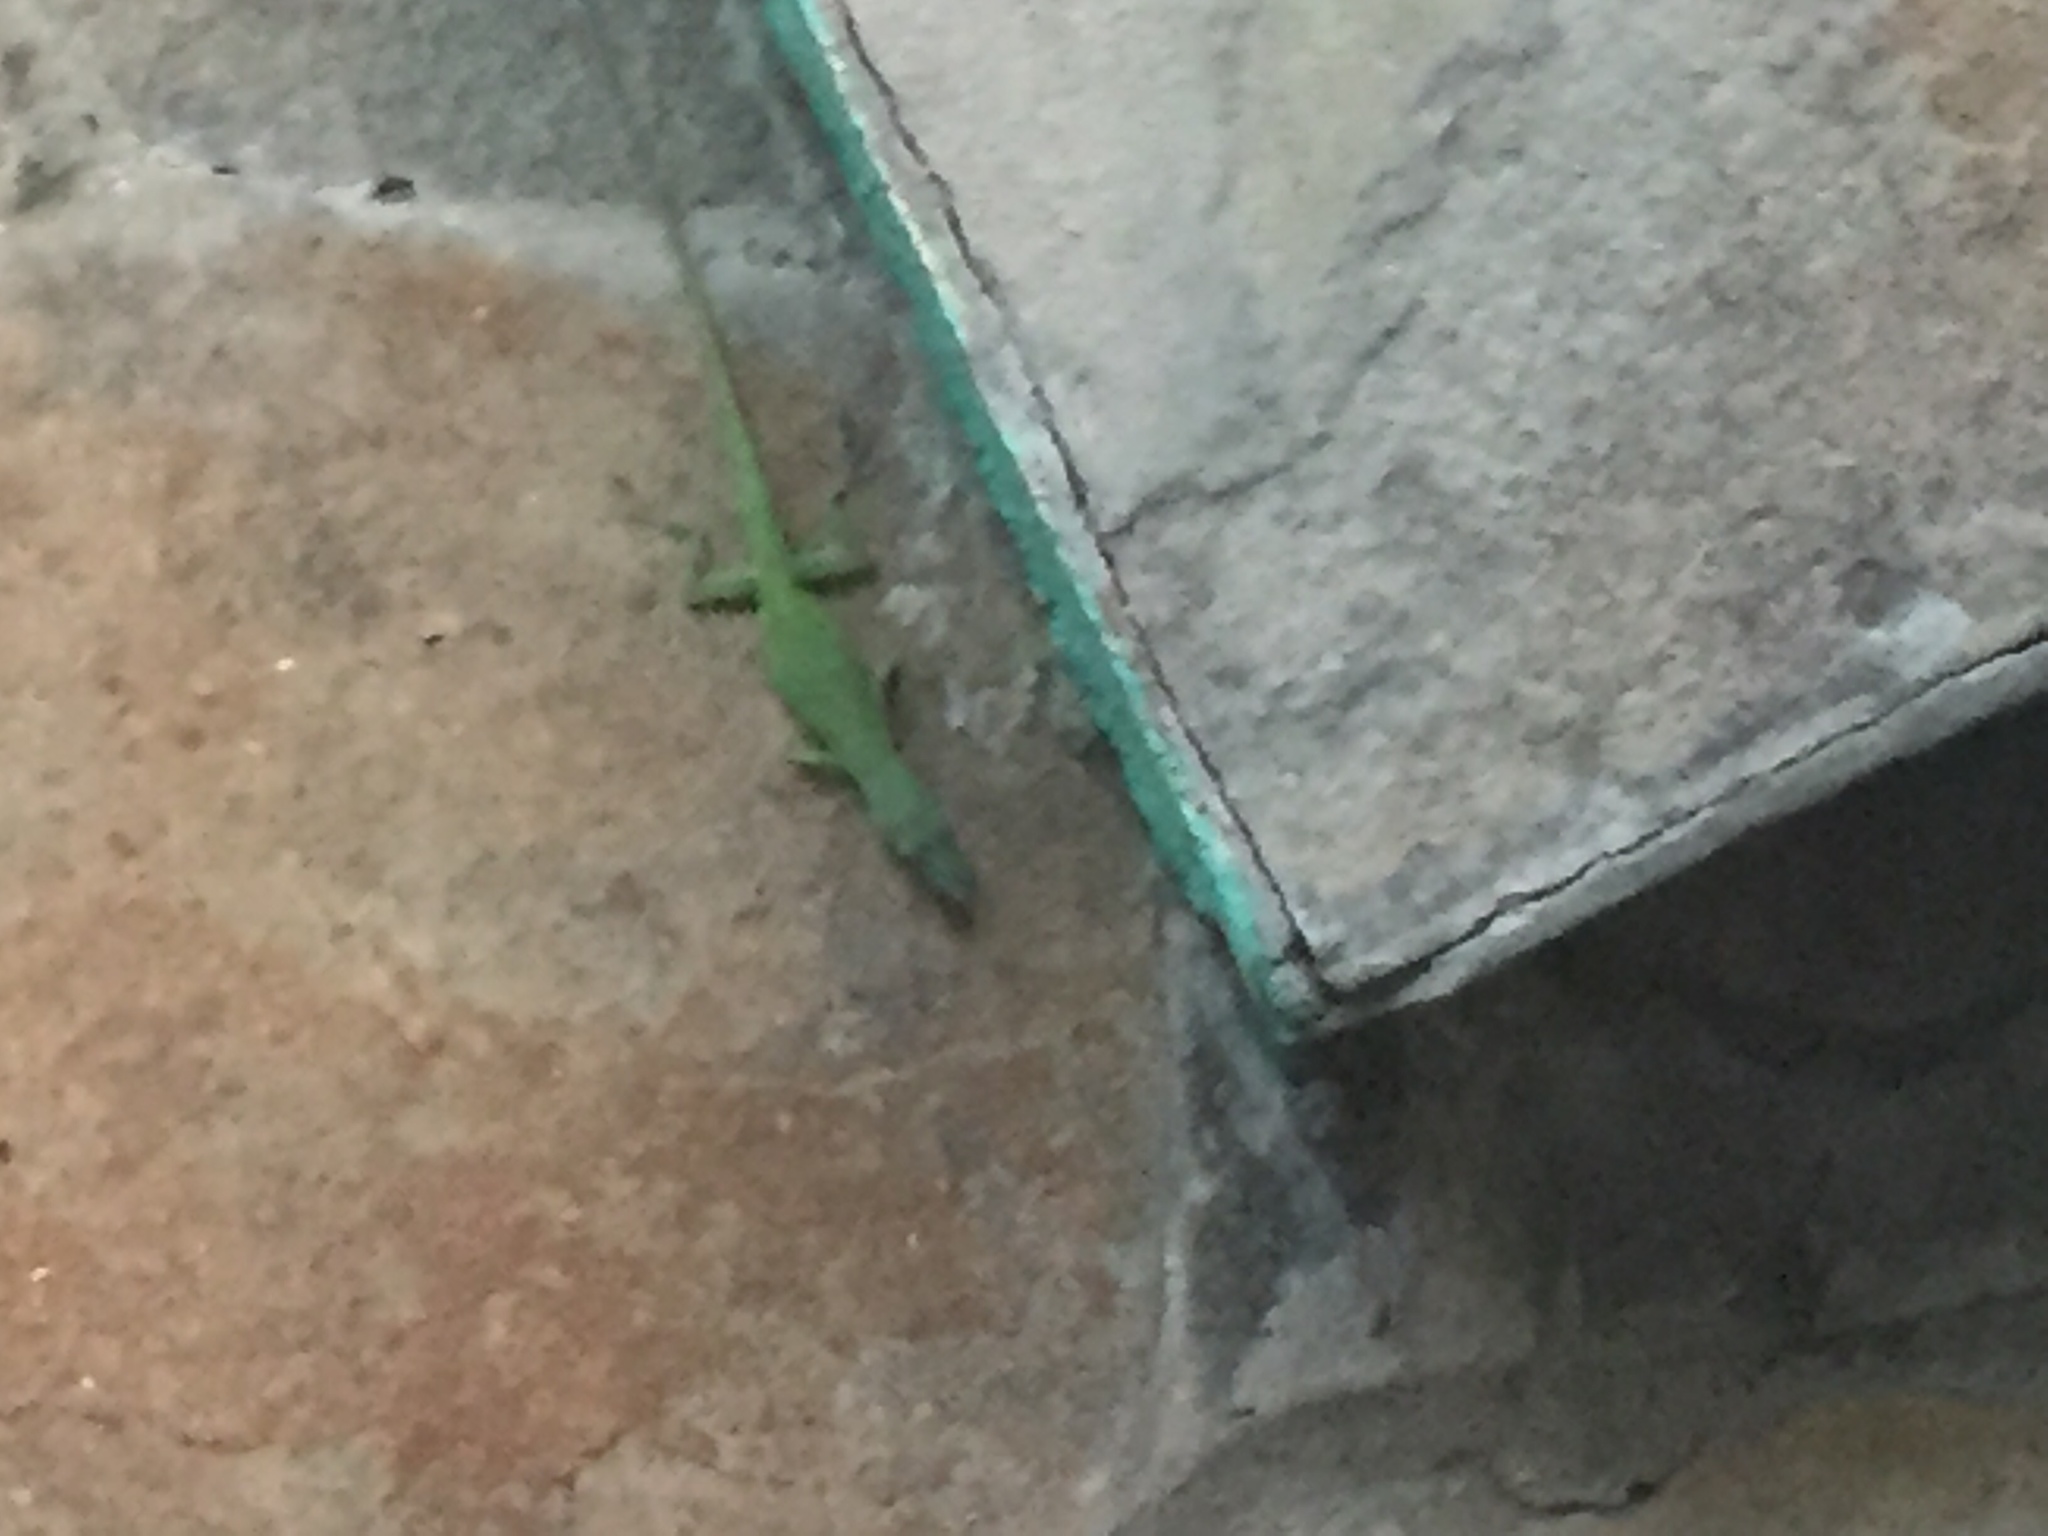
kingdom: Animalia
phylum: Chordata
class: Squamata
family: Dactyloidae
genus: Anolis
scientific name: Anolis porcatus
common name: Cuban green anole
